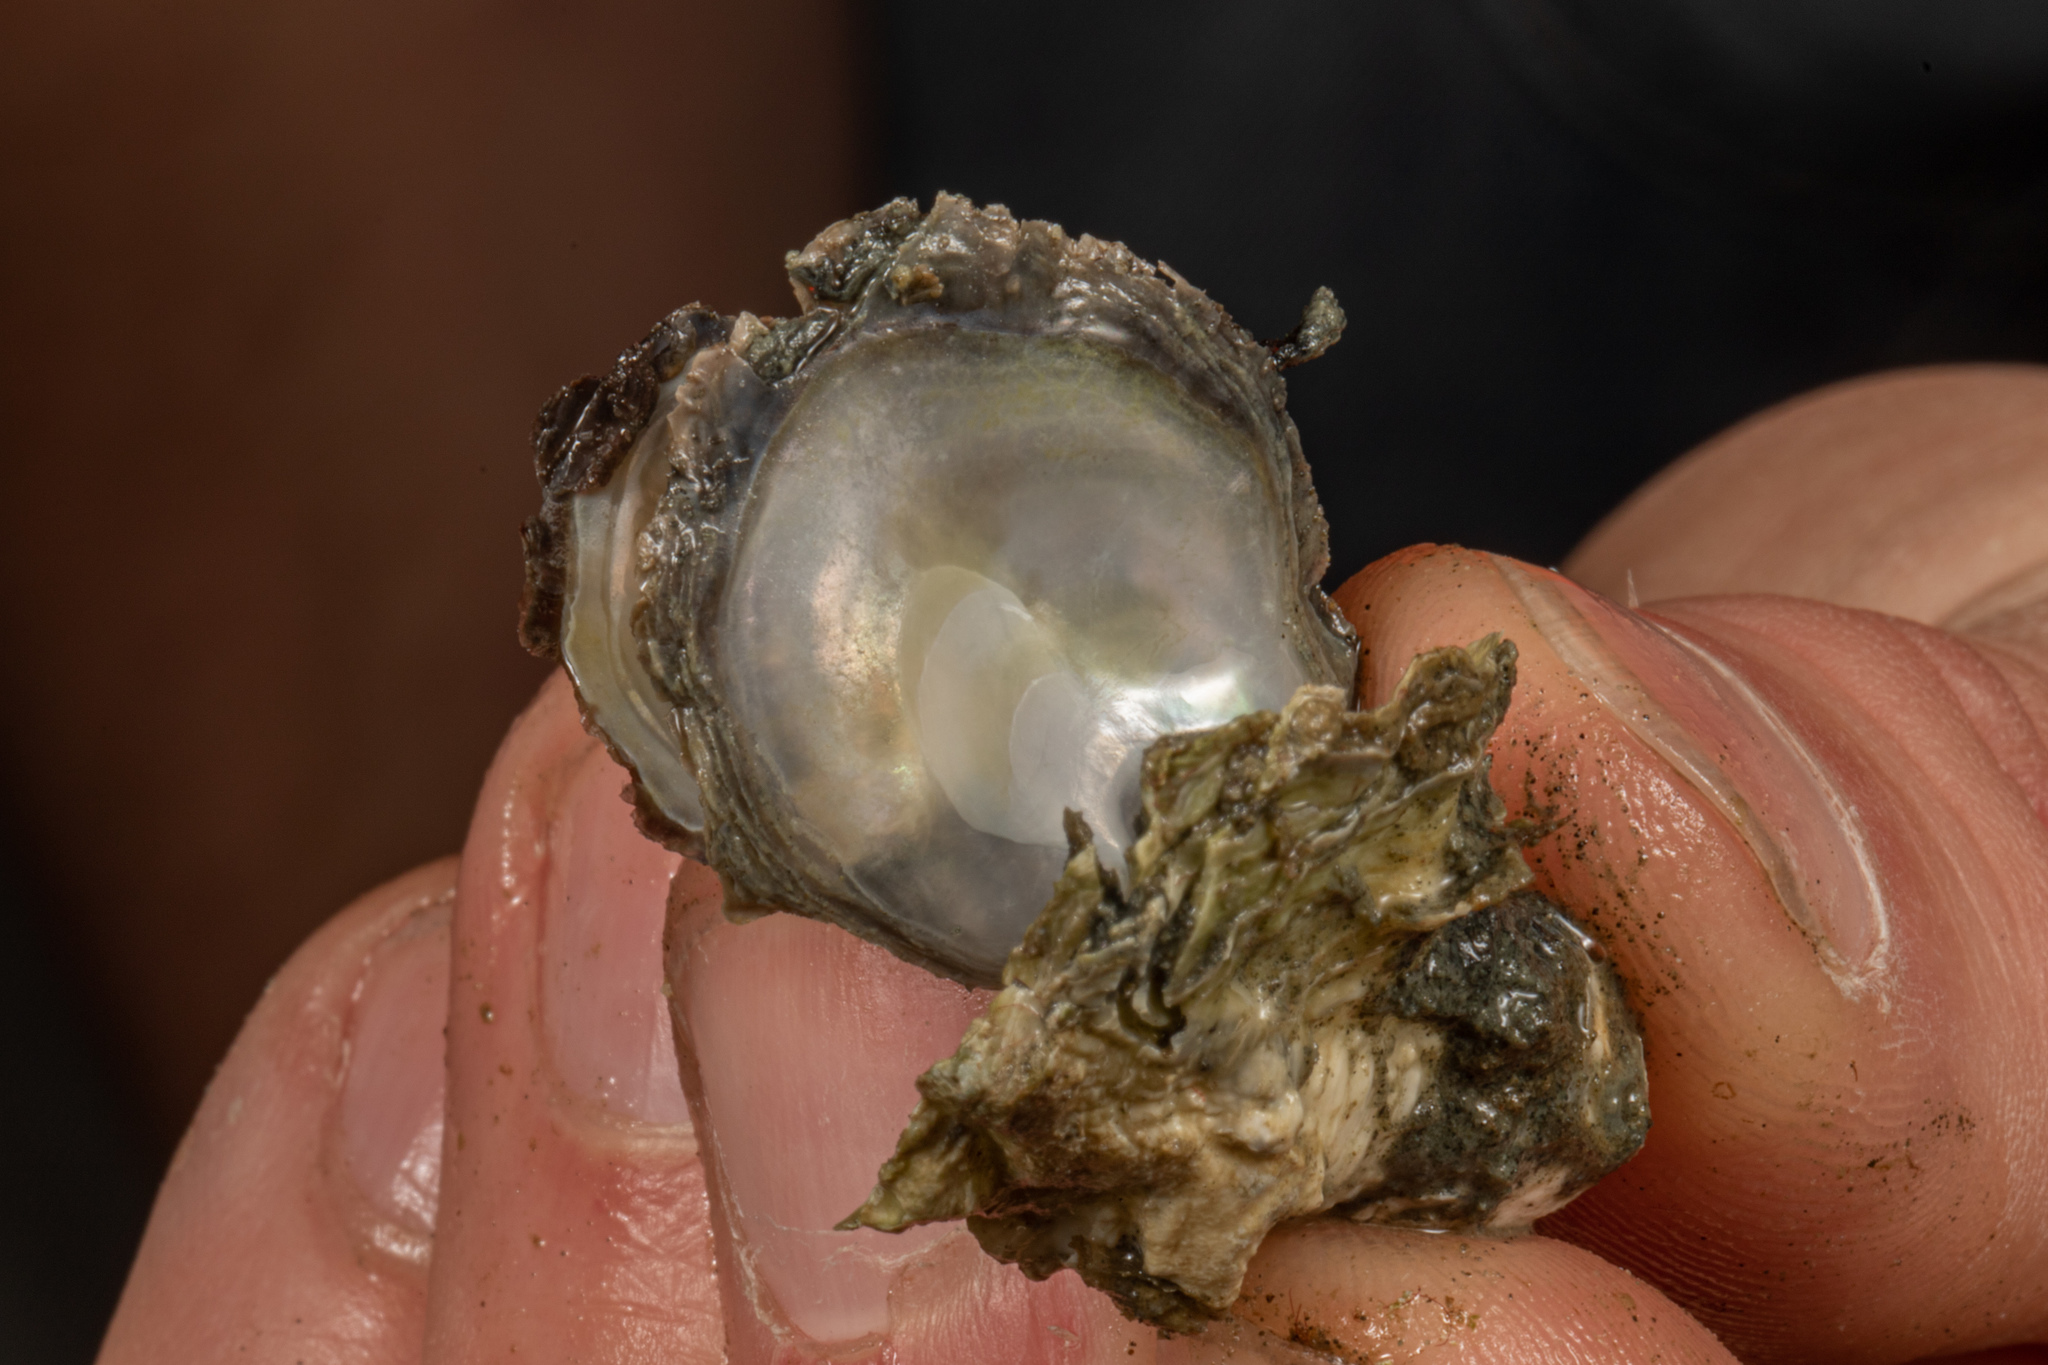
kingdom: Animalia
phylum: Mollusca
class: Bivalvia
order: Ostreida
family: Ostreidae
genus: Magallana
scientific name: Magallana gigas
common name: Pacific oyster
